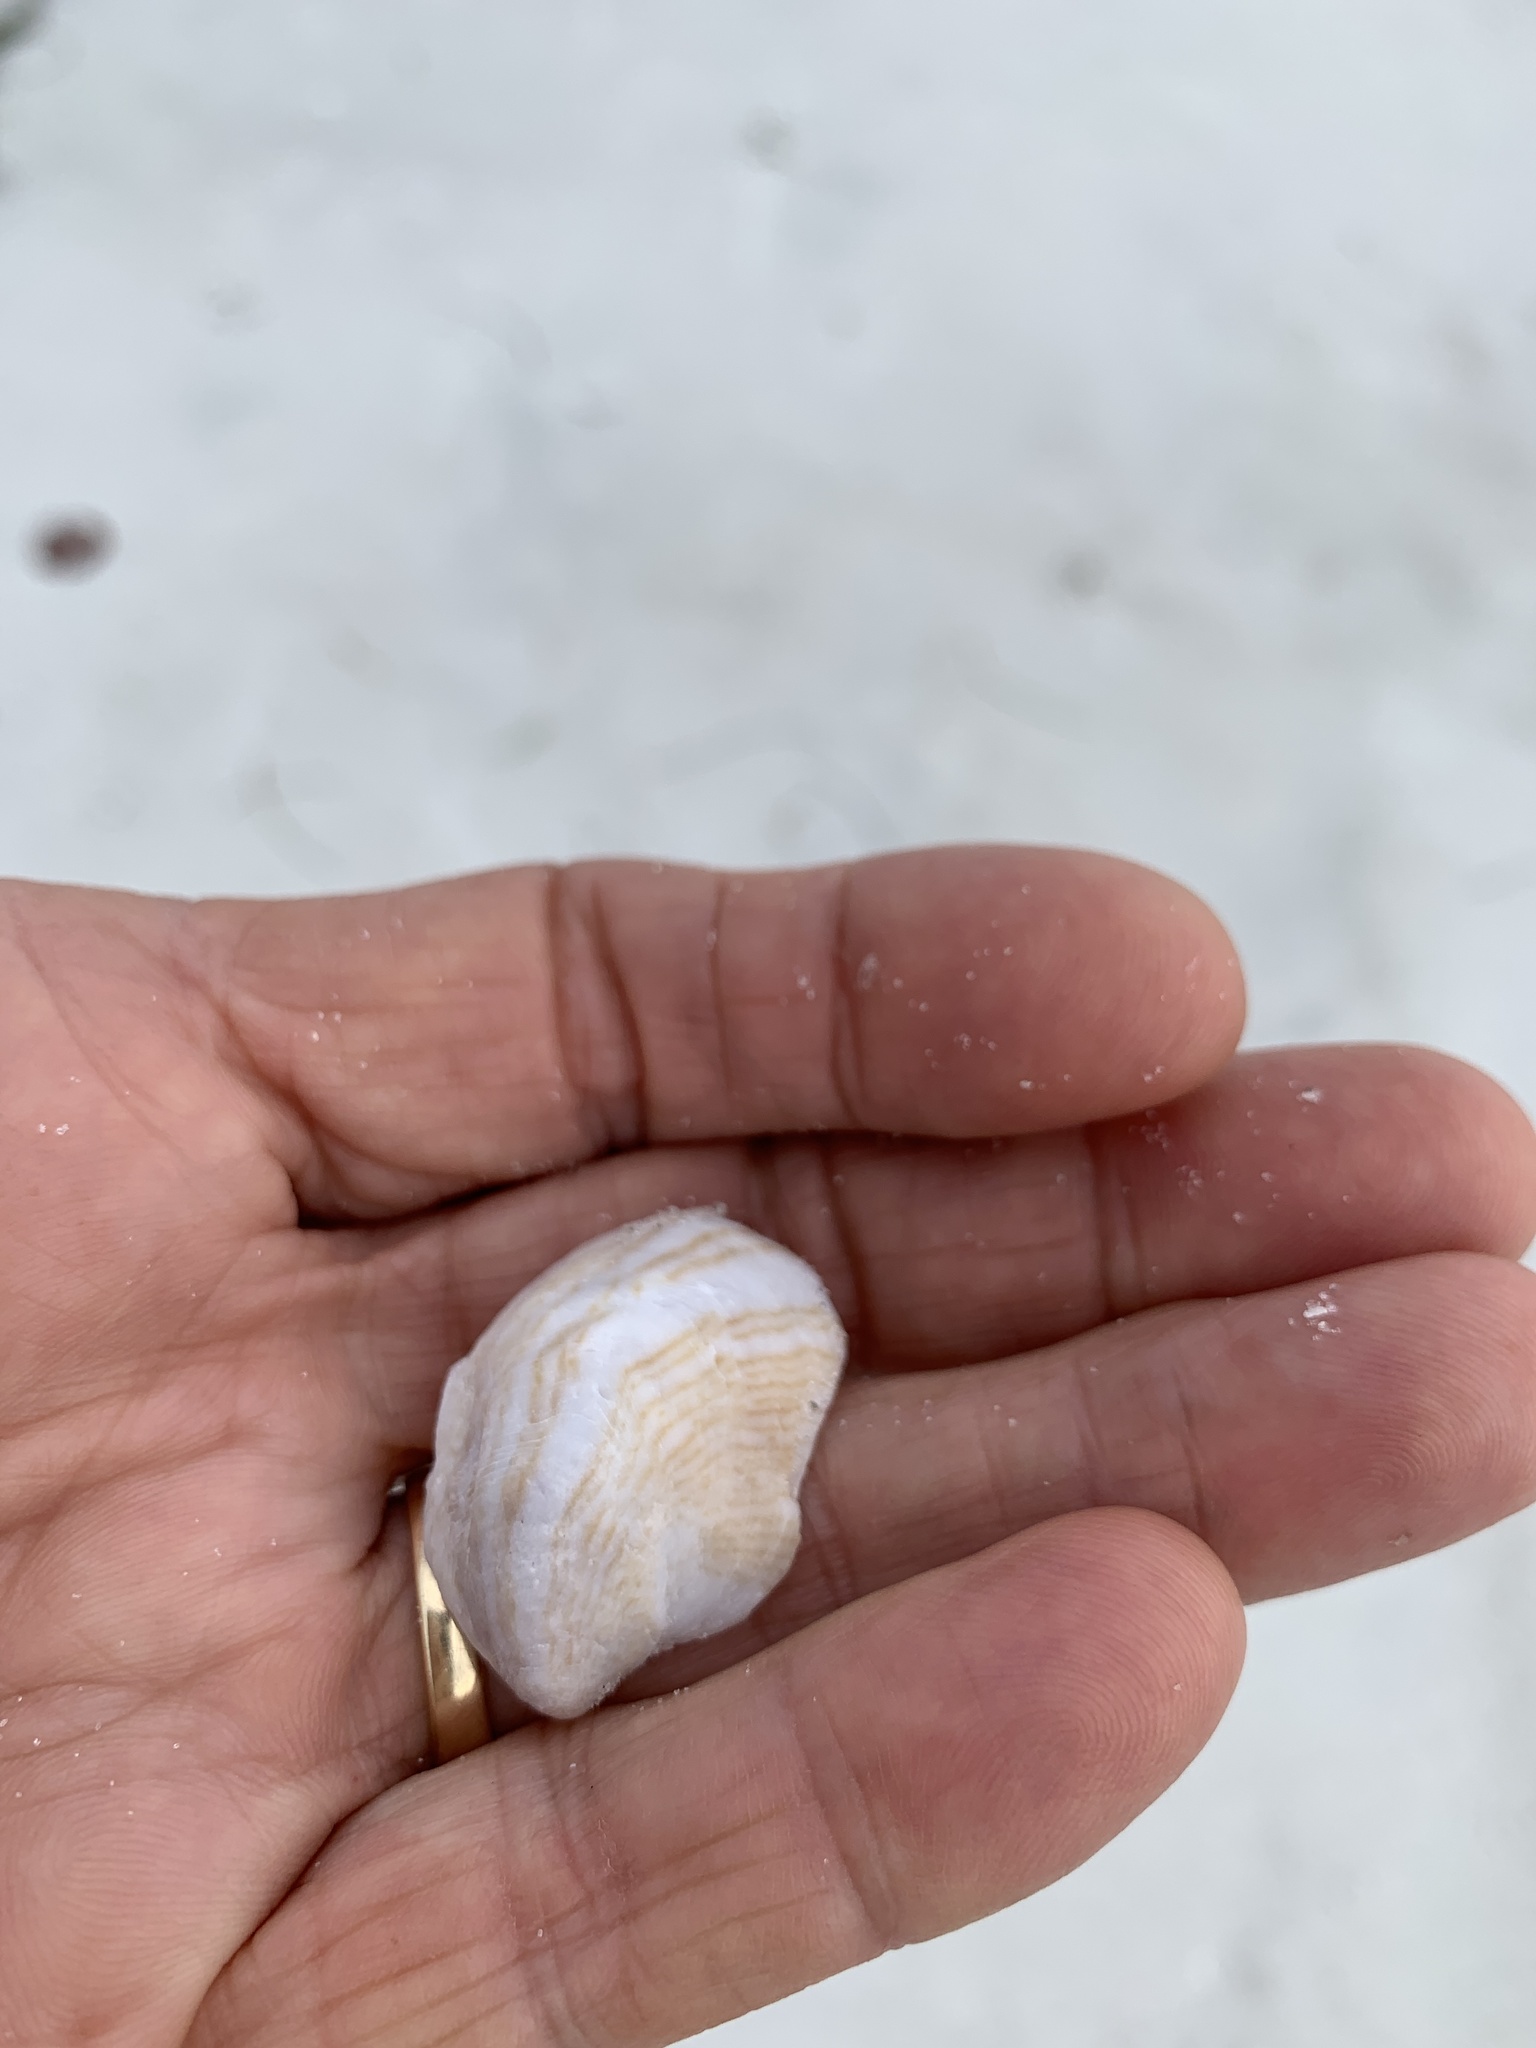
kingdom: Animalia
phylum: Mollusca
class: Gastropoda
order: Littorinimorpha
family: Calyptraeidae
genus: Crepidula
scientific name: Crepidula fornicata
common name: Slipper limpet
